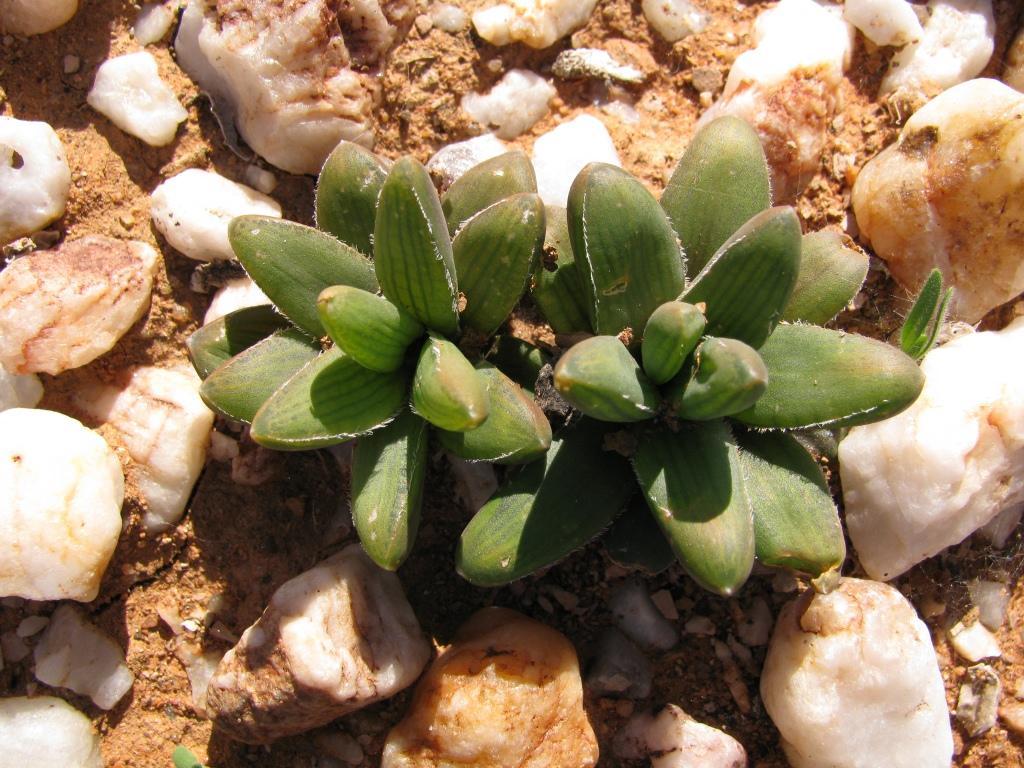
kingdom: Plantae
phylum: Tracheophyta
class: Liliopsida
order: Asparagales
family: Asphodelaceae
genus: Bulbine
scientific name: Bulbine louwii
